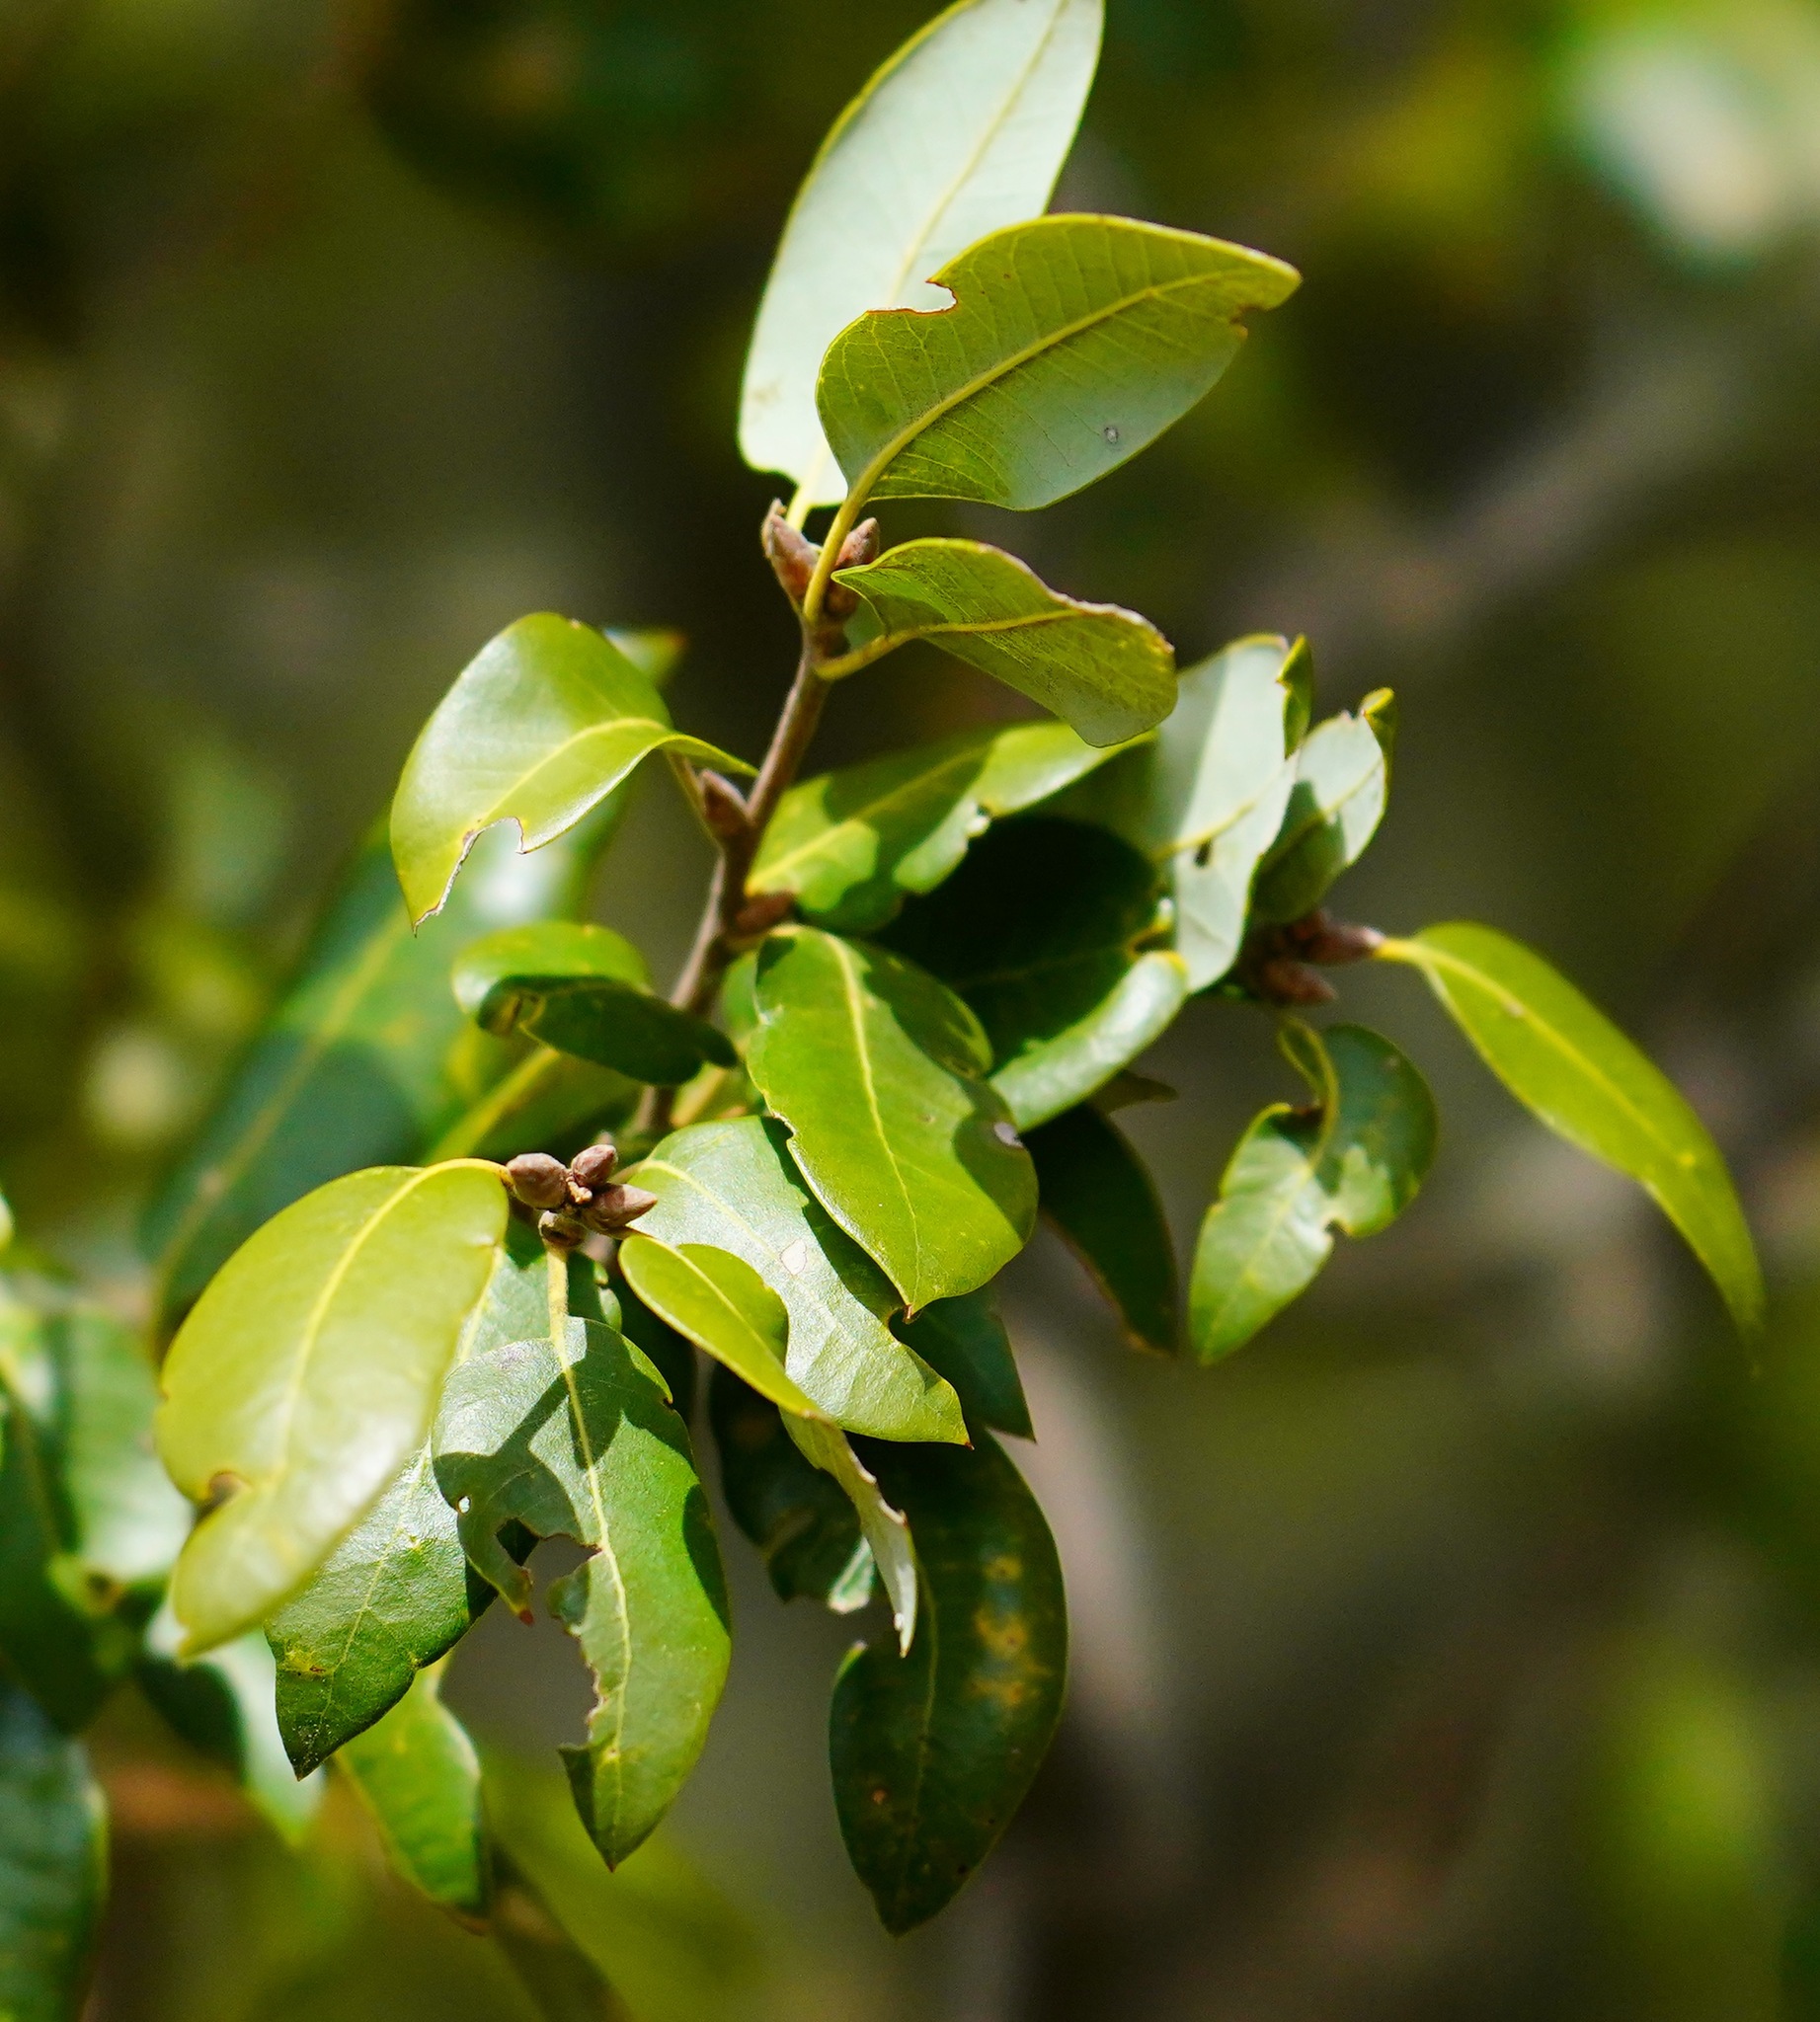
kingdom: Plantae
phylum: Tracheophyta
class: Magnoliopsida
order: Fagales
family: Fagaceae
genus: Quercus
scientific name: Quercus chrysolepis
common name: Canyon live oak
